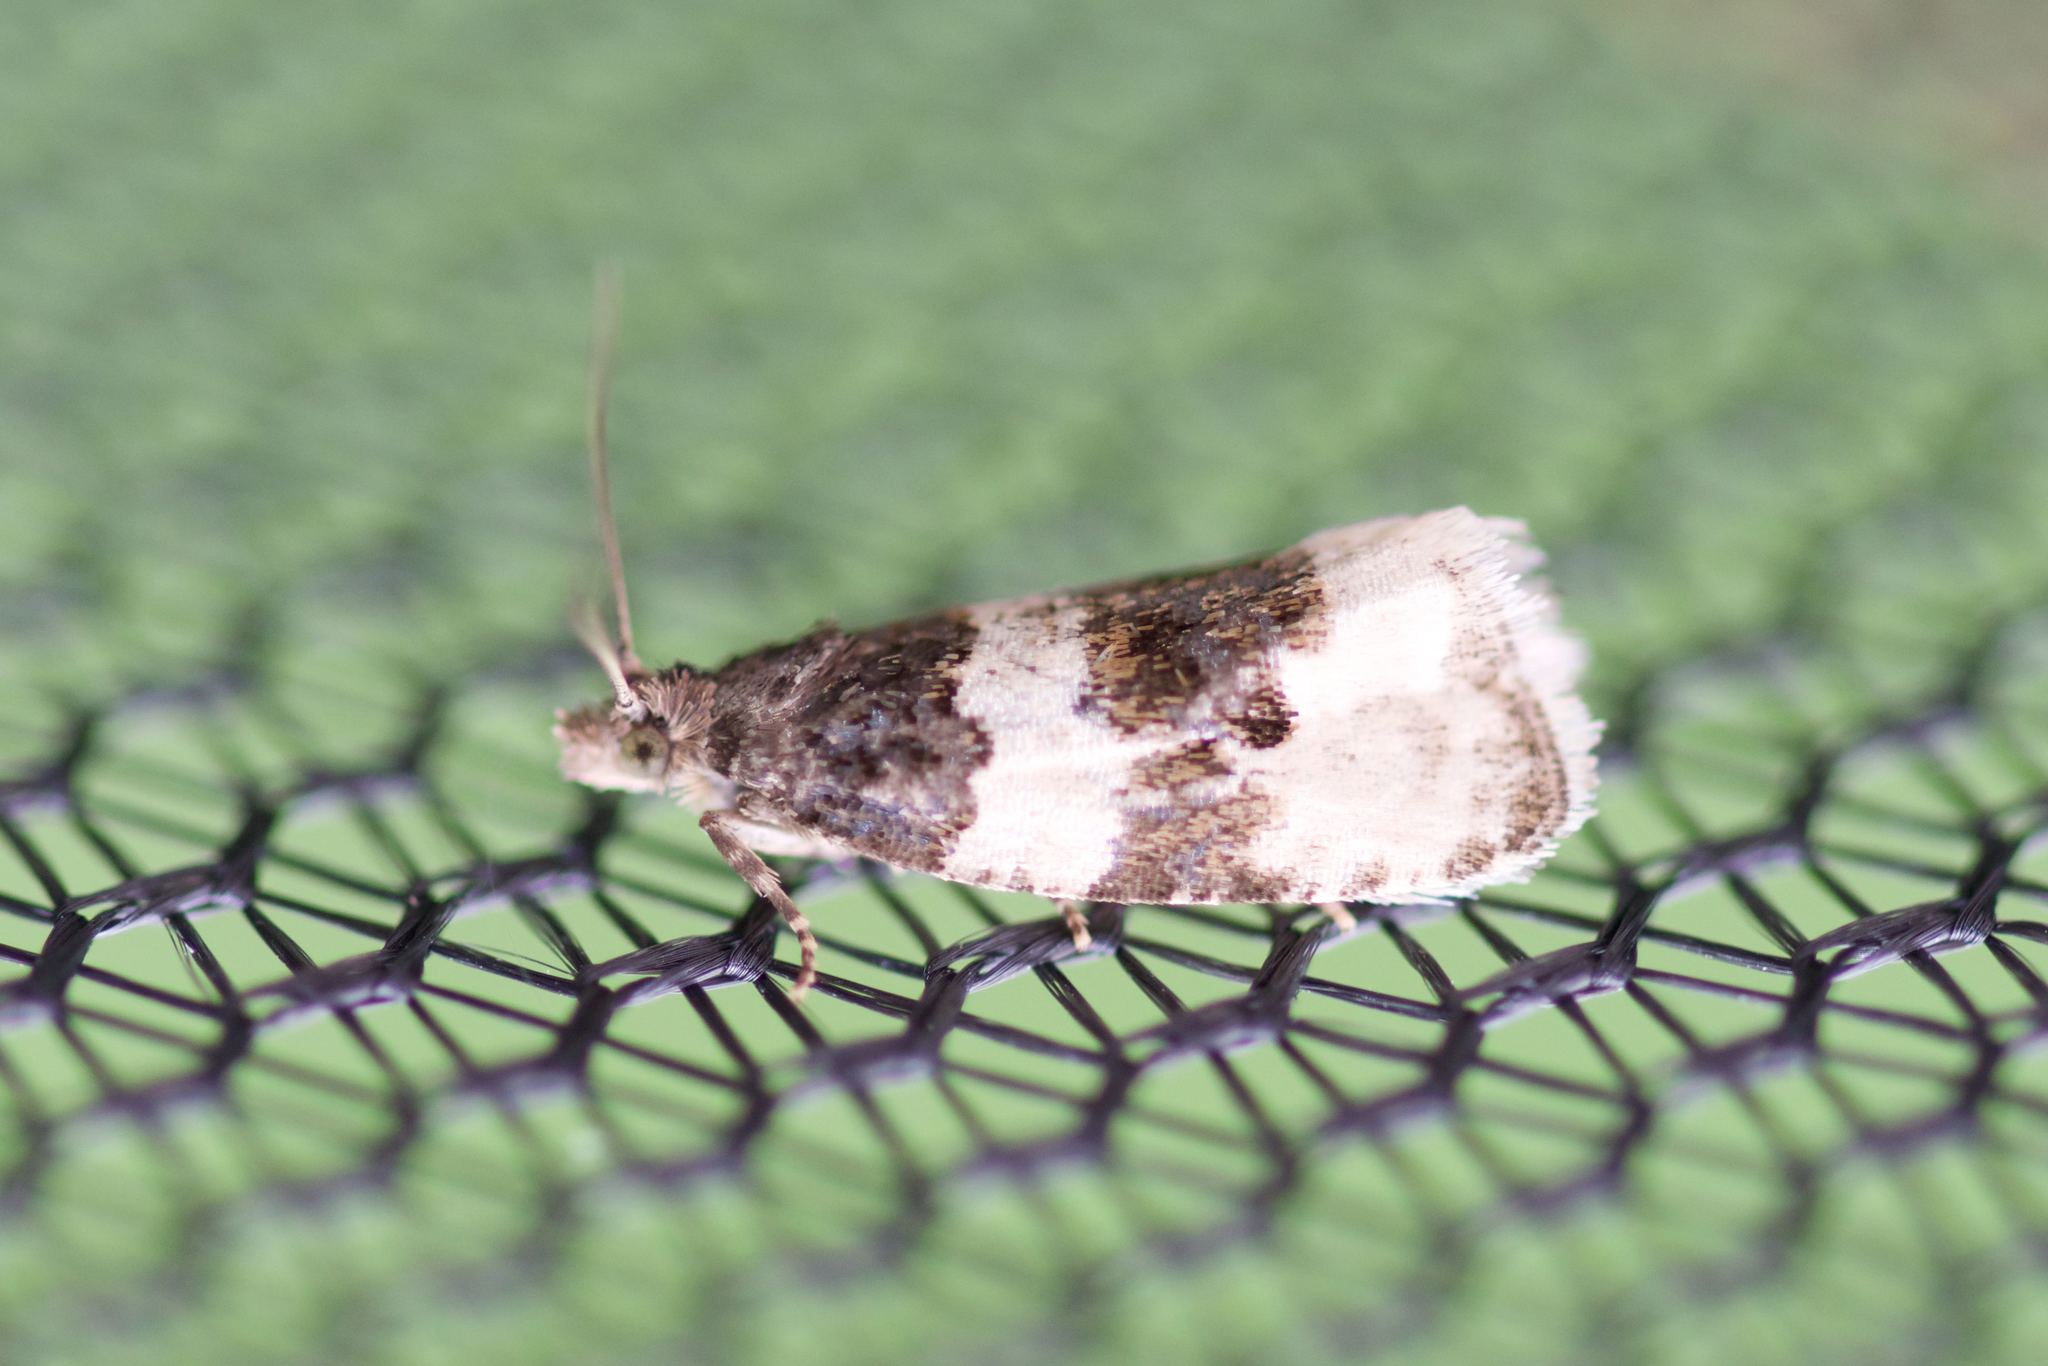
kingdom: Animalia
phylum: Arthropoda
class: Insecta
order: Lepidoptera
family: Tortricidae
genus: Olethreutes
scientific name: Olethreutes bipartitana
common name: Divided olethreutes moth
